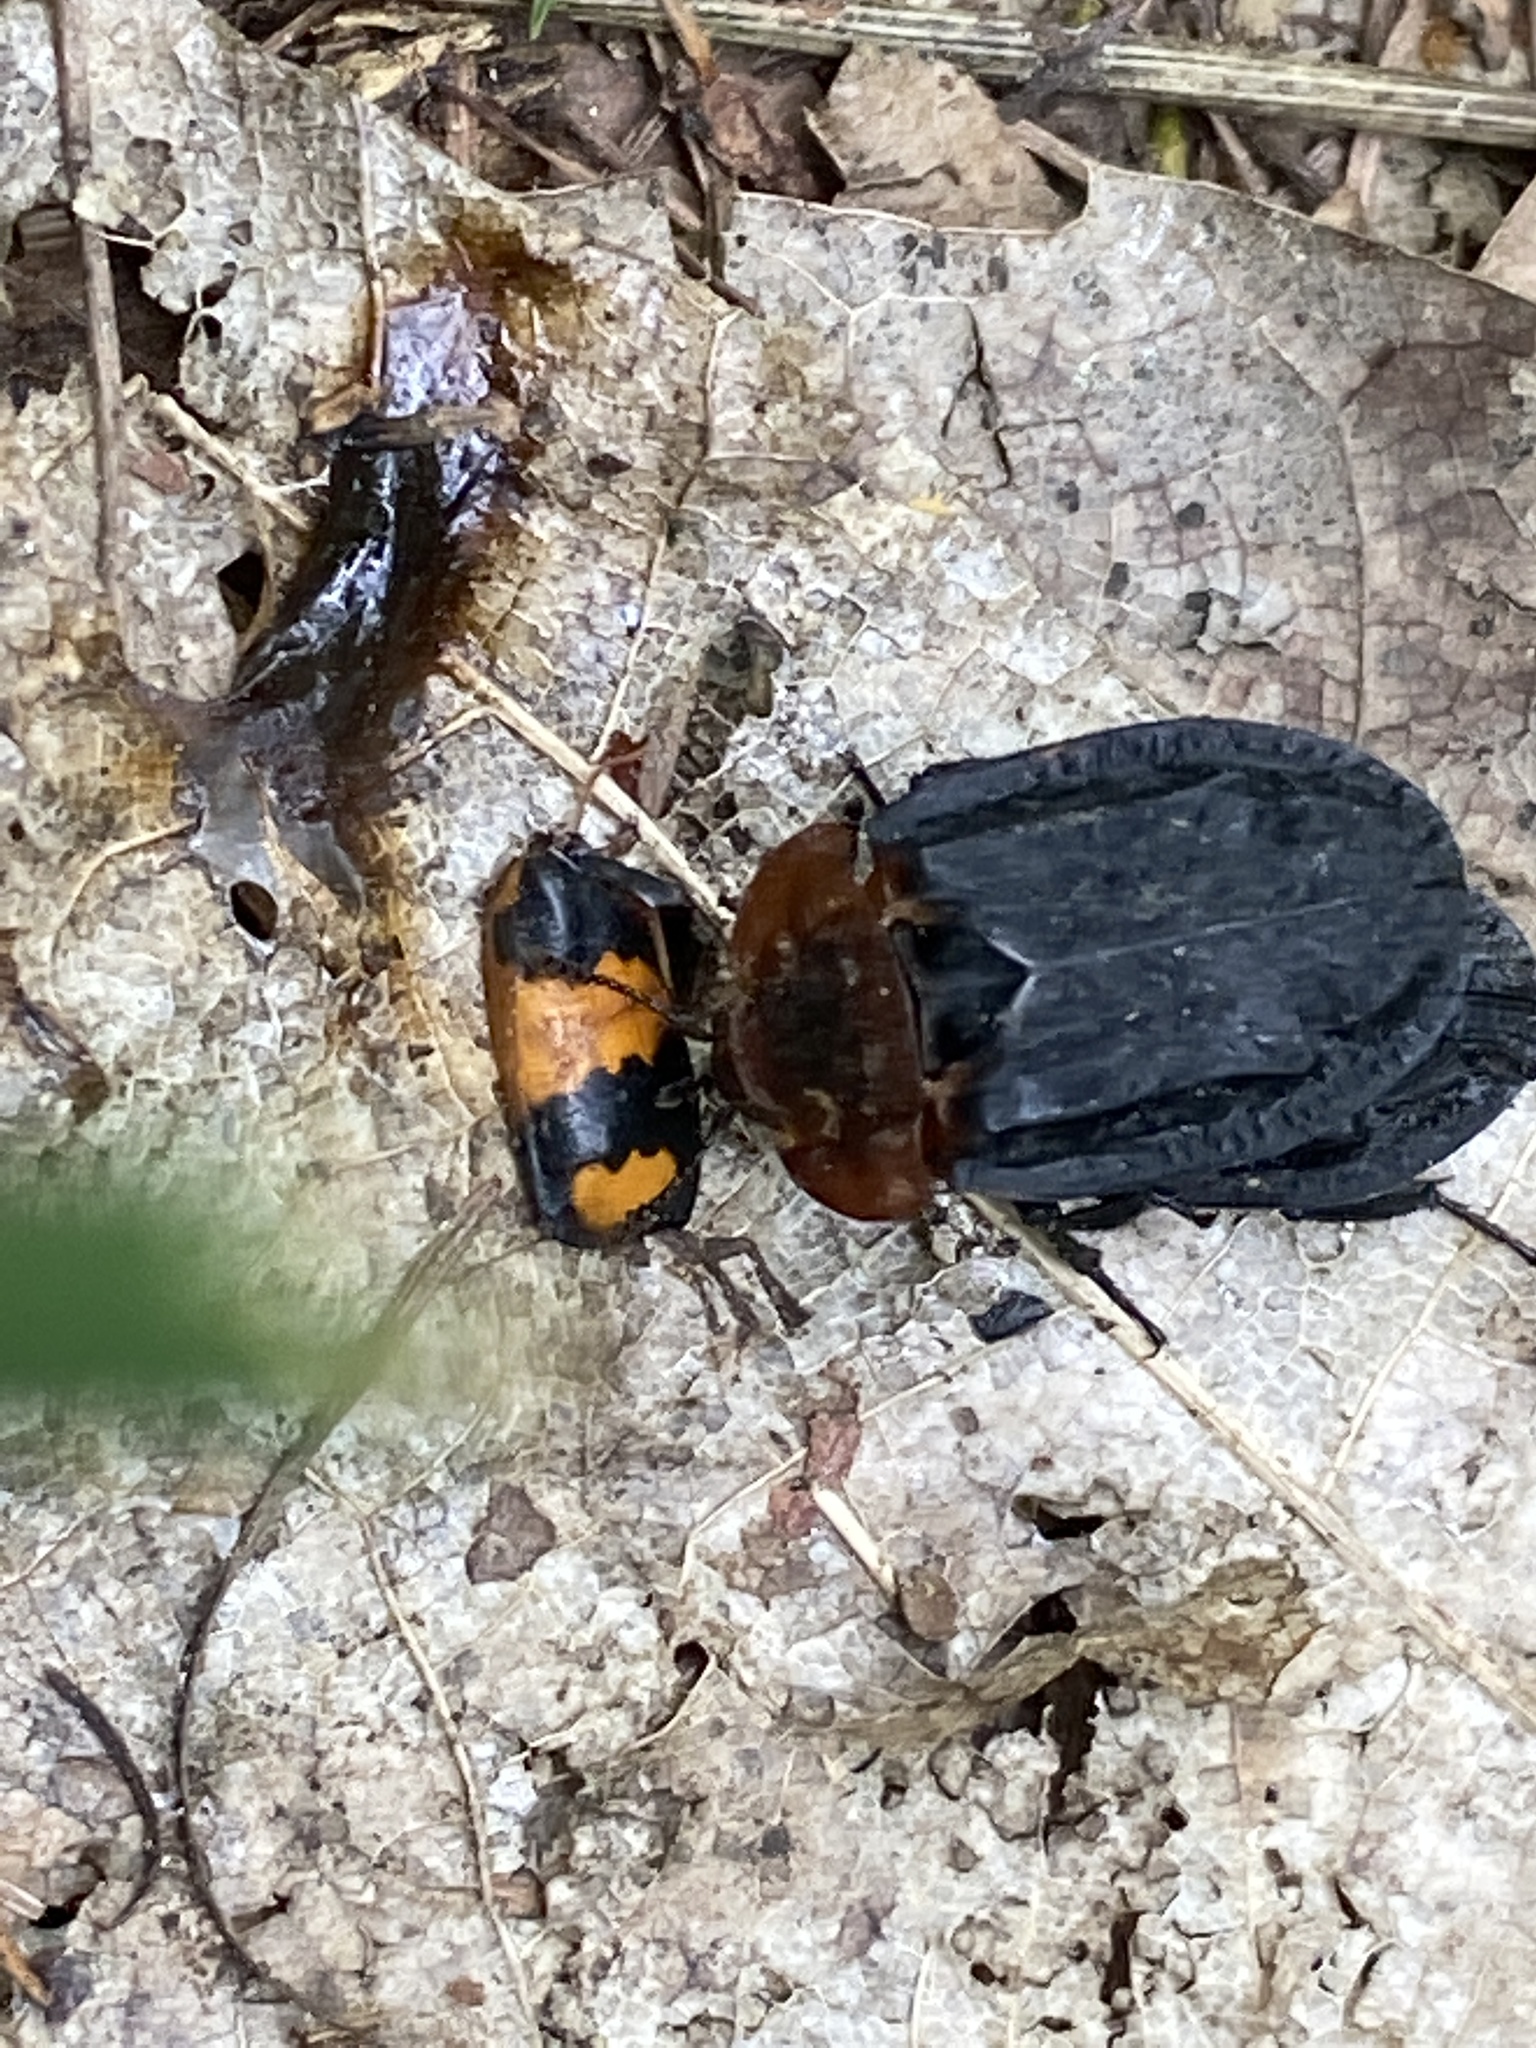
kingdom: Animalia
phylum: Arthropoda
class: Insecta
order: Coleoptera
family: Staphylinidae
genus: Oiceoptoma
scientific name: Oiceoptoma thoracicum
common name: Red-breasted carrion beetle
